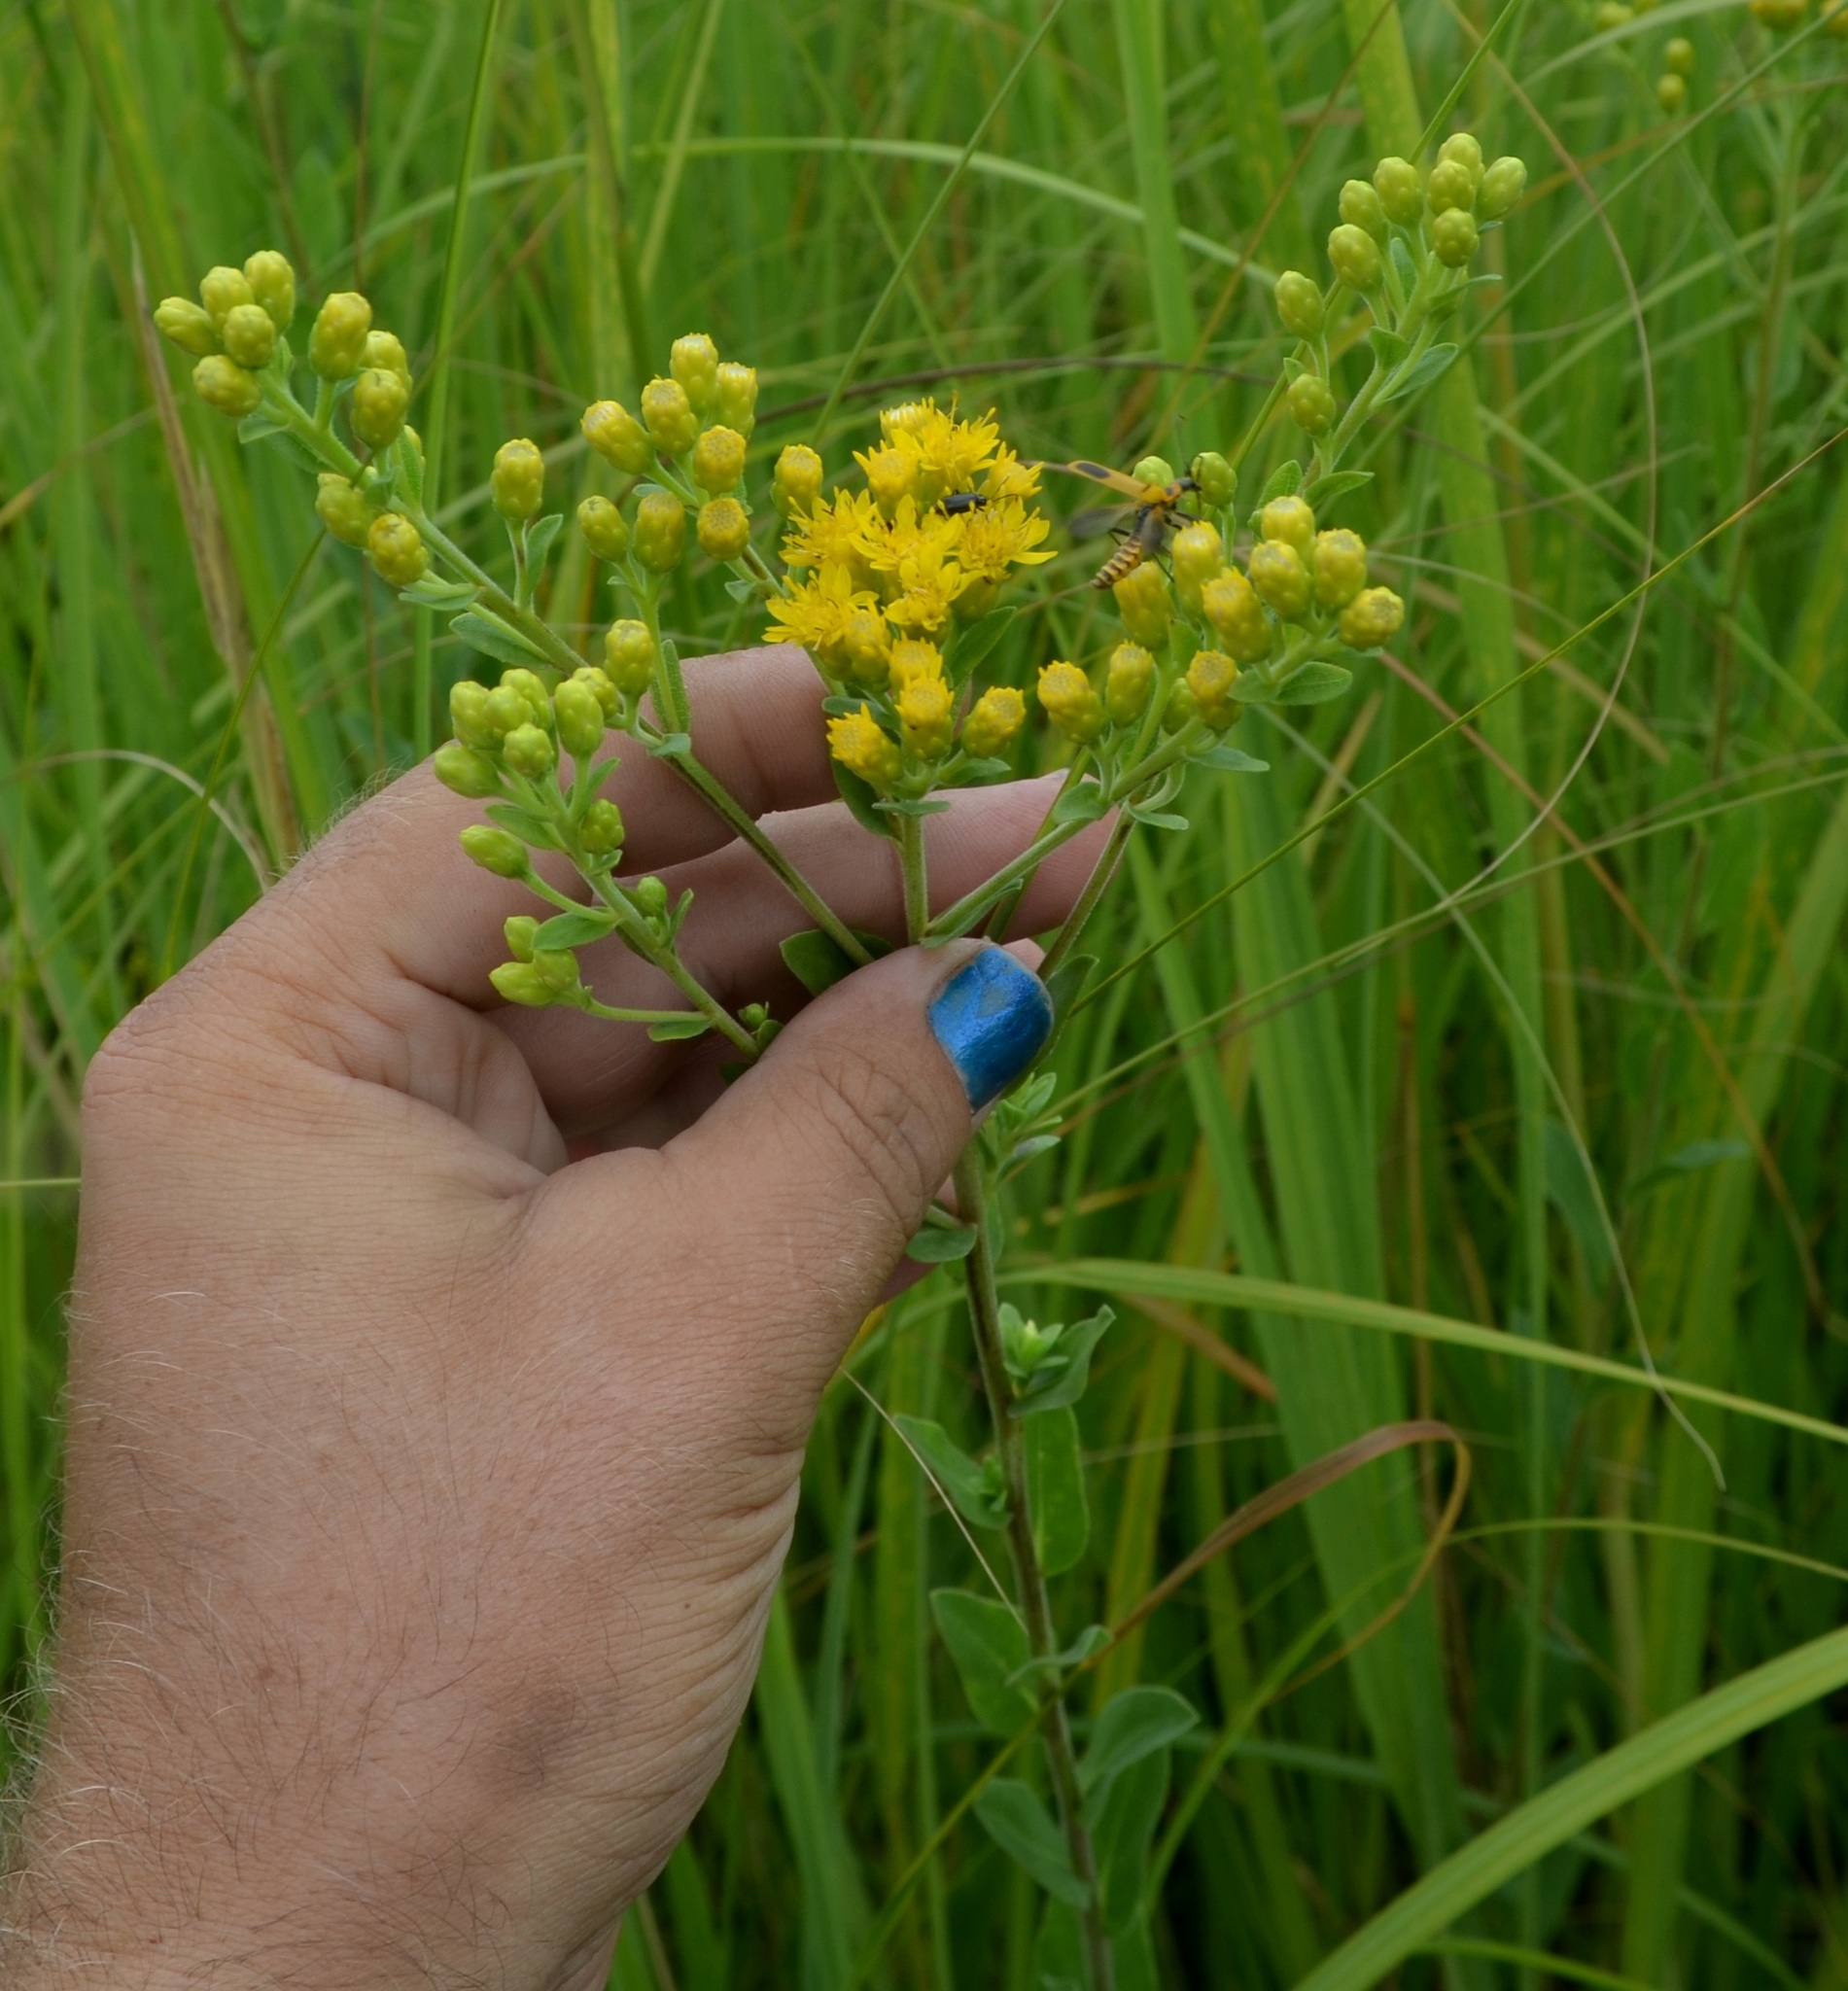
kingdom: Plantae
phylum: Tracheophyta
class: Magnoliopsida
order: Asterales
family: Asteraceae
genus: Solidago
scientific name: Solidago rigida
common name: Rigid goldenrod
